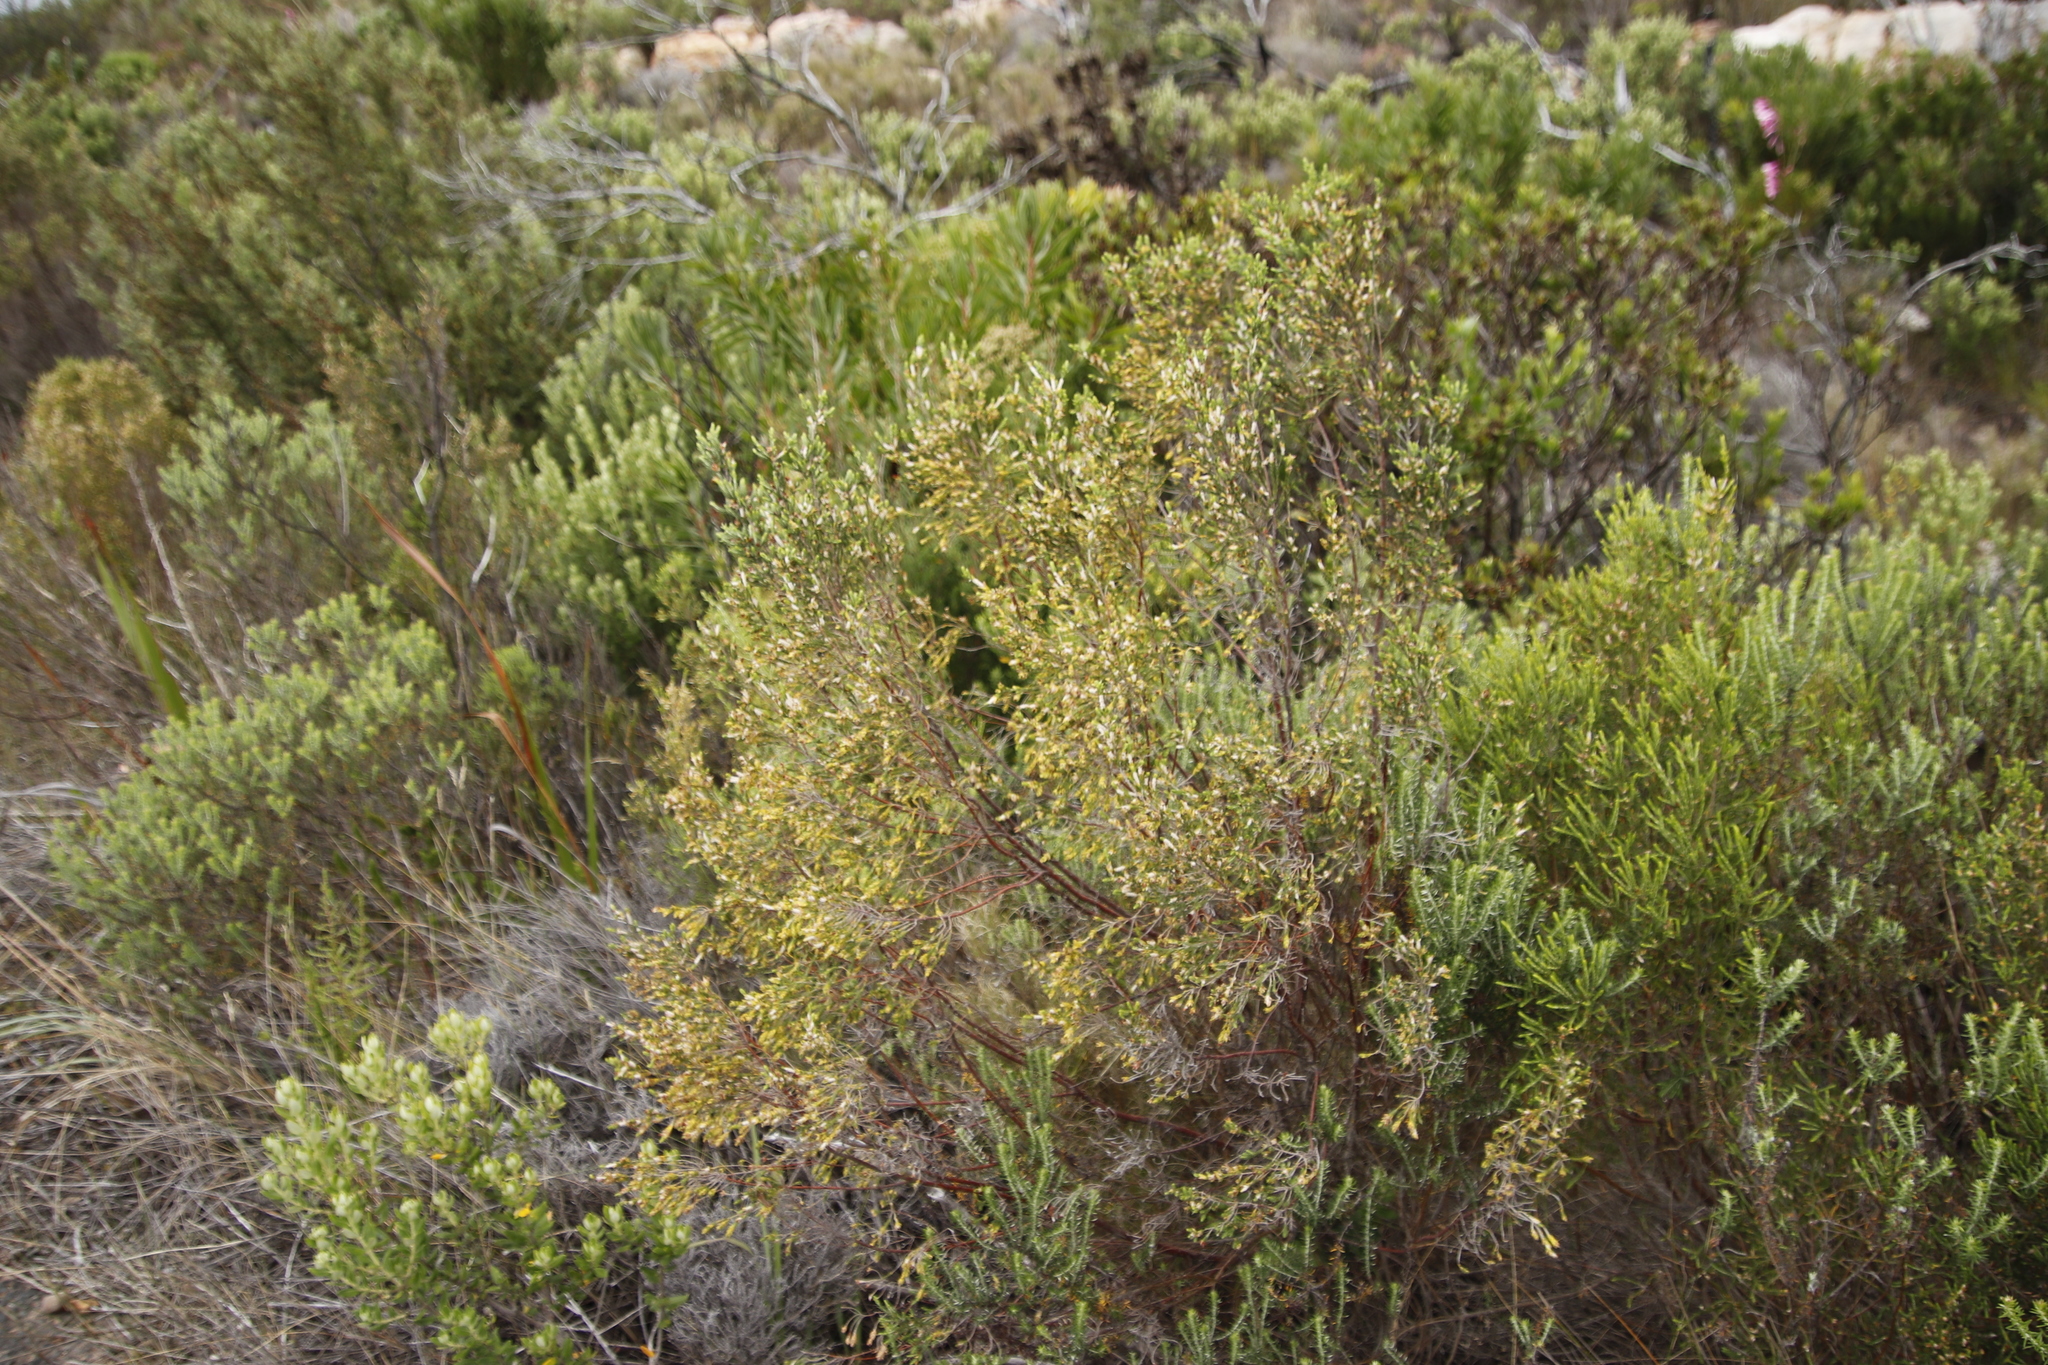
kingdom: Plantae
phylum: Tracheophyta
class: Magnoliopsida
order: Malvales
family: Thymelaeaceae
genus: Passerina
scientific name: Passerina corymbosa
